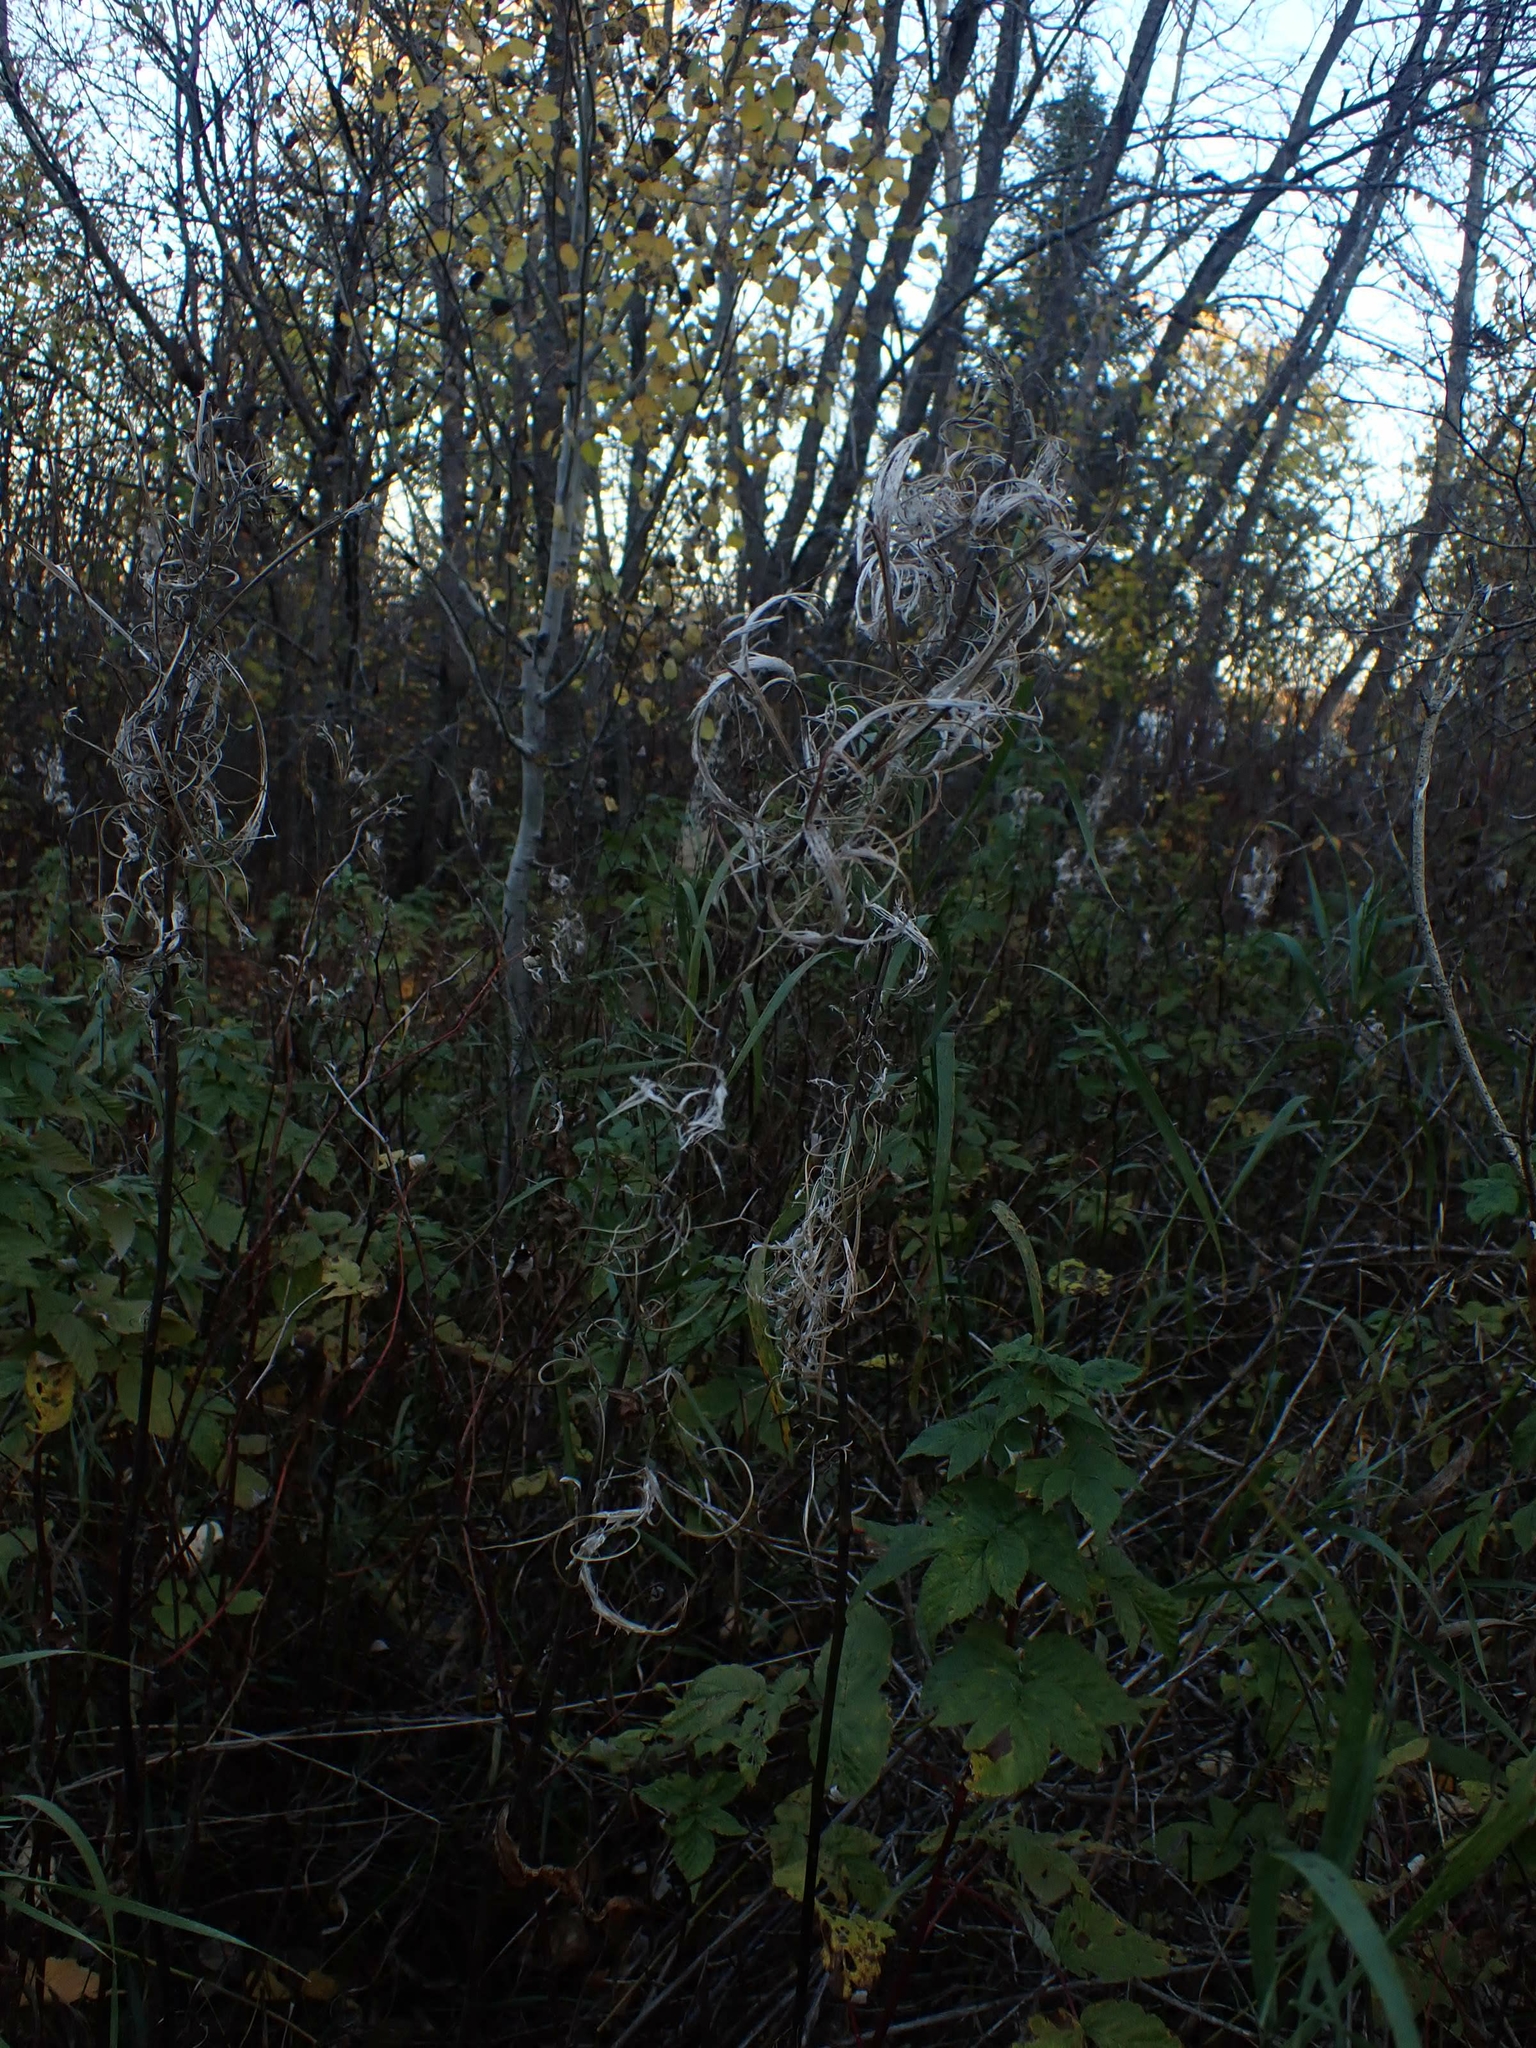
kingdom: Plantae
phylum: Tracheophyta
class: Magnoliopsida
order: Myrtales
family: Onagraceae
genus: Chamaenerion
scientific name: Chamaenerion angustifolium
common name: Fireweed
